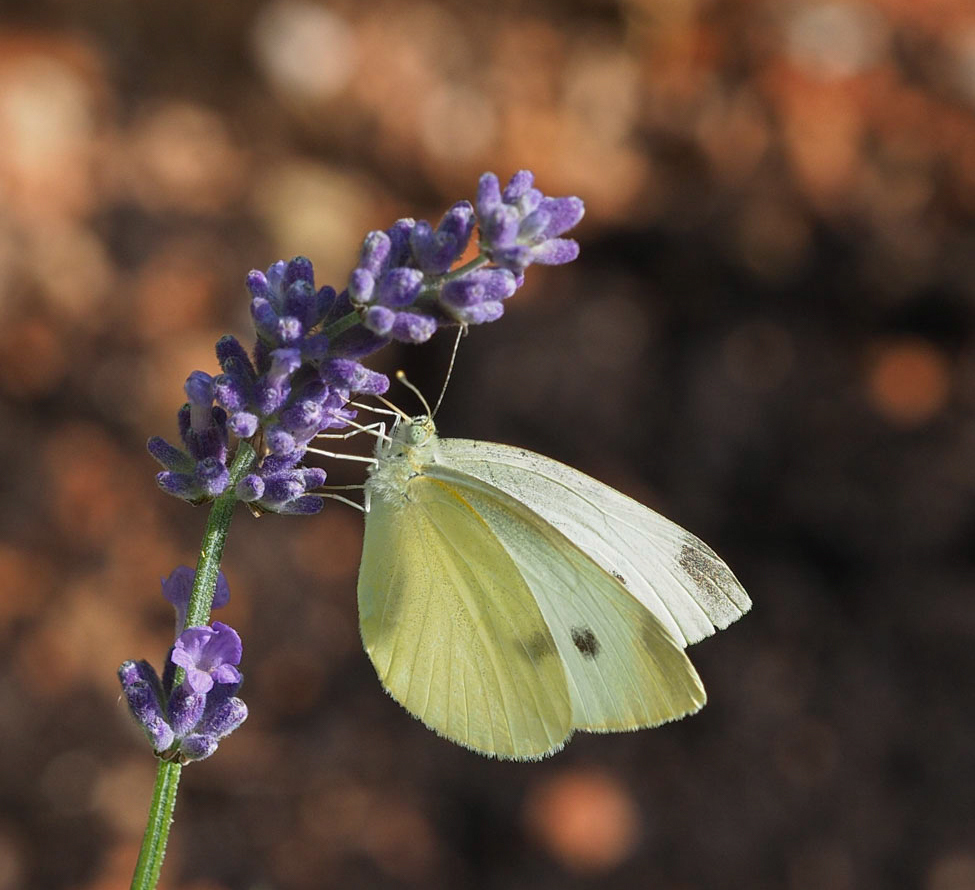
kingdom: Animalia
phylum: Arthropoda
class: Insecta
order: Lepidoptera
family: Pieridae
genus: Pieris
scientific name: Pieris rapae
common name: Small white
